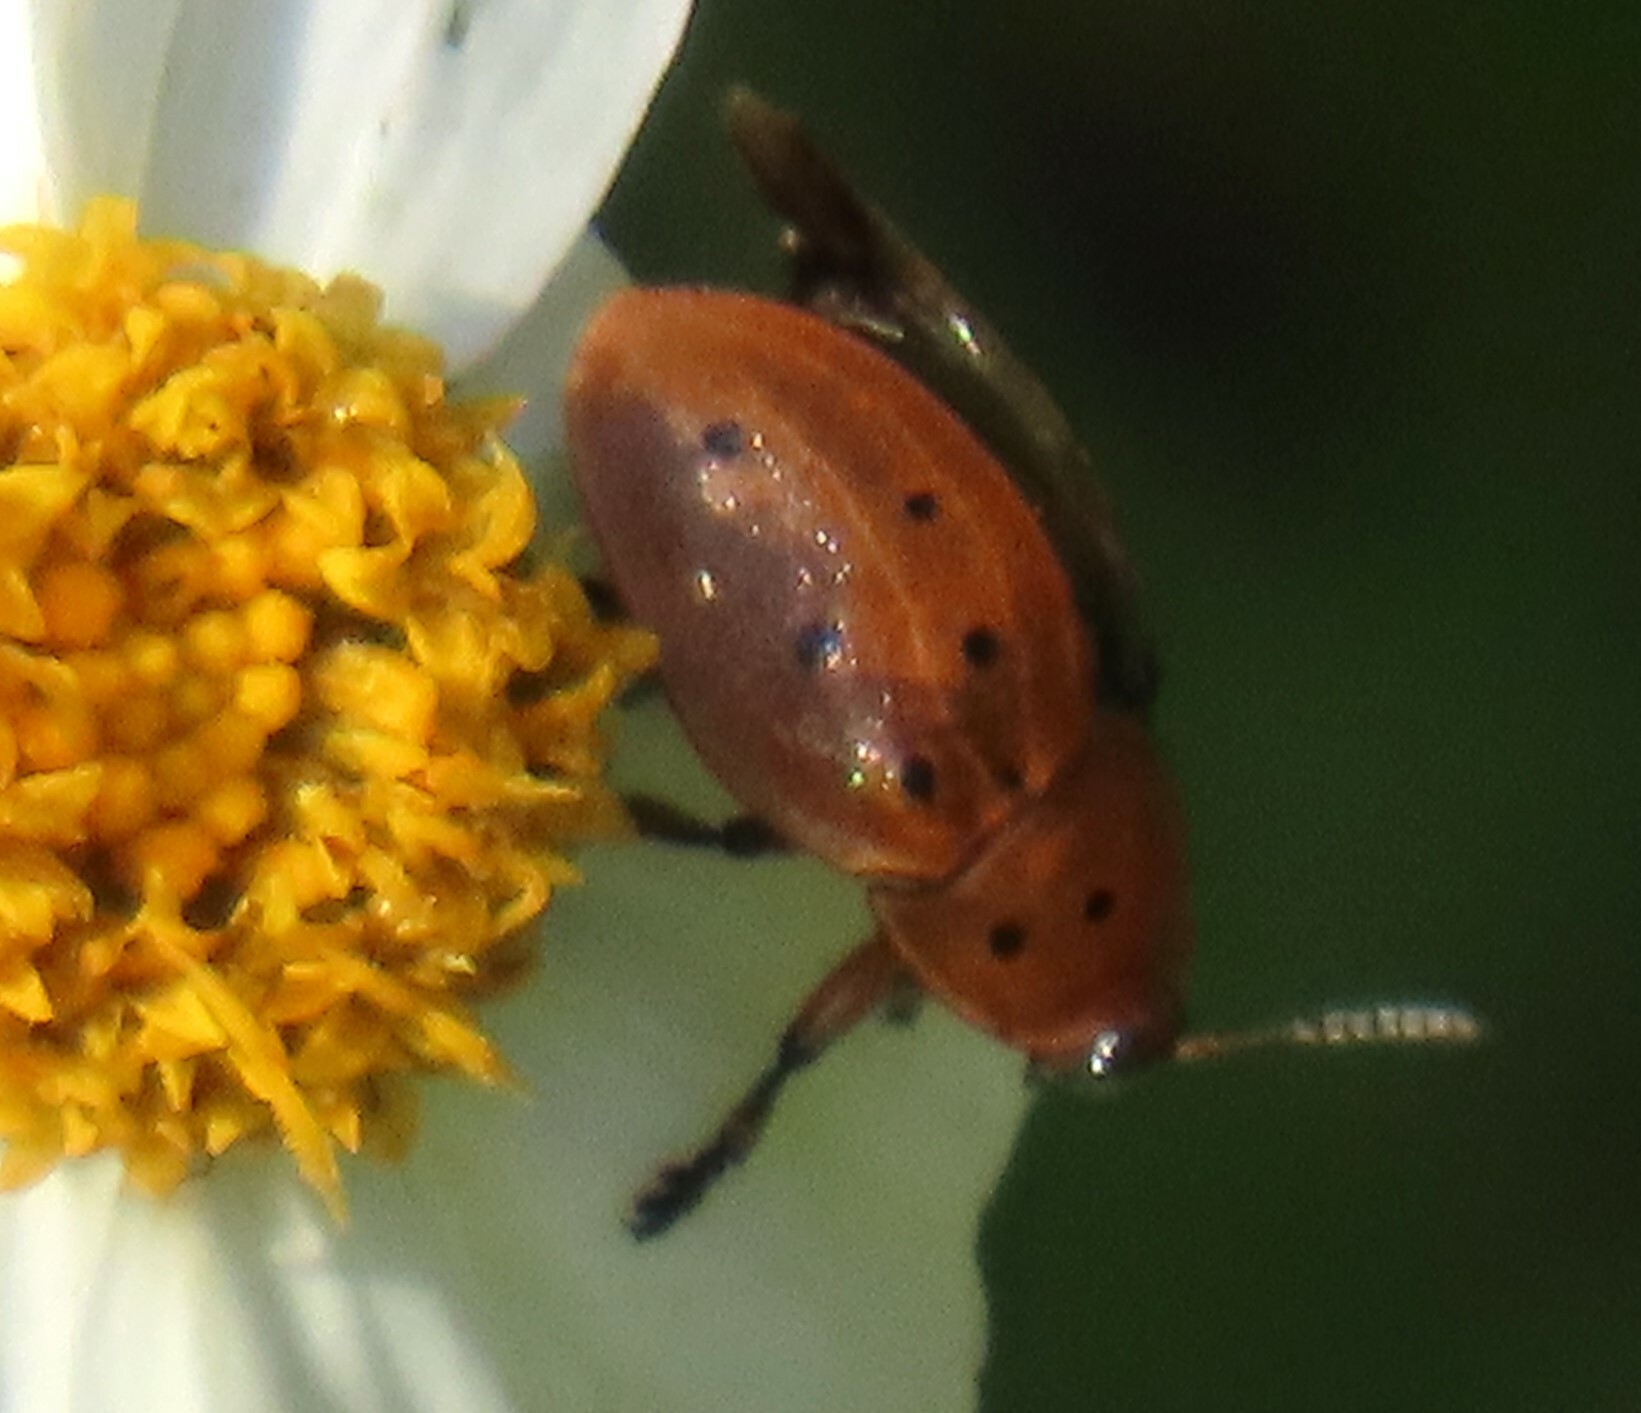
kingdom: Animalia
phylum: Arthropoda
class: Insecta
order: Coleoptera
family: Chrysomelidae
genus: Chelymorpha
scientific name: Chelymorpha cassidea
